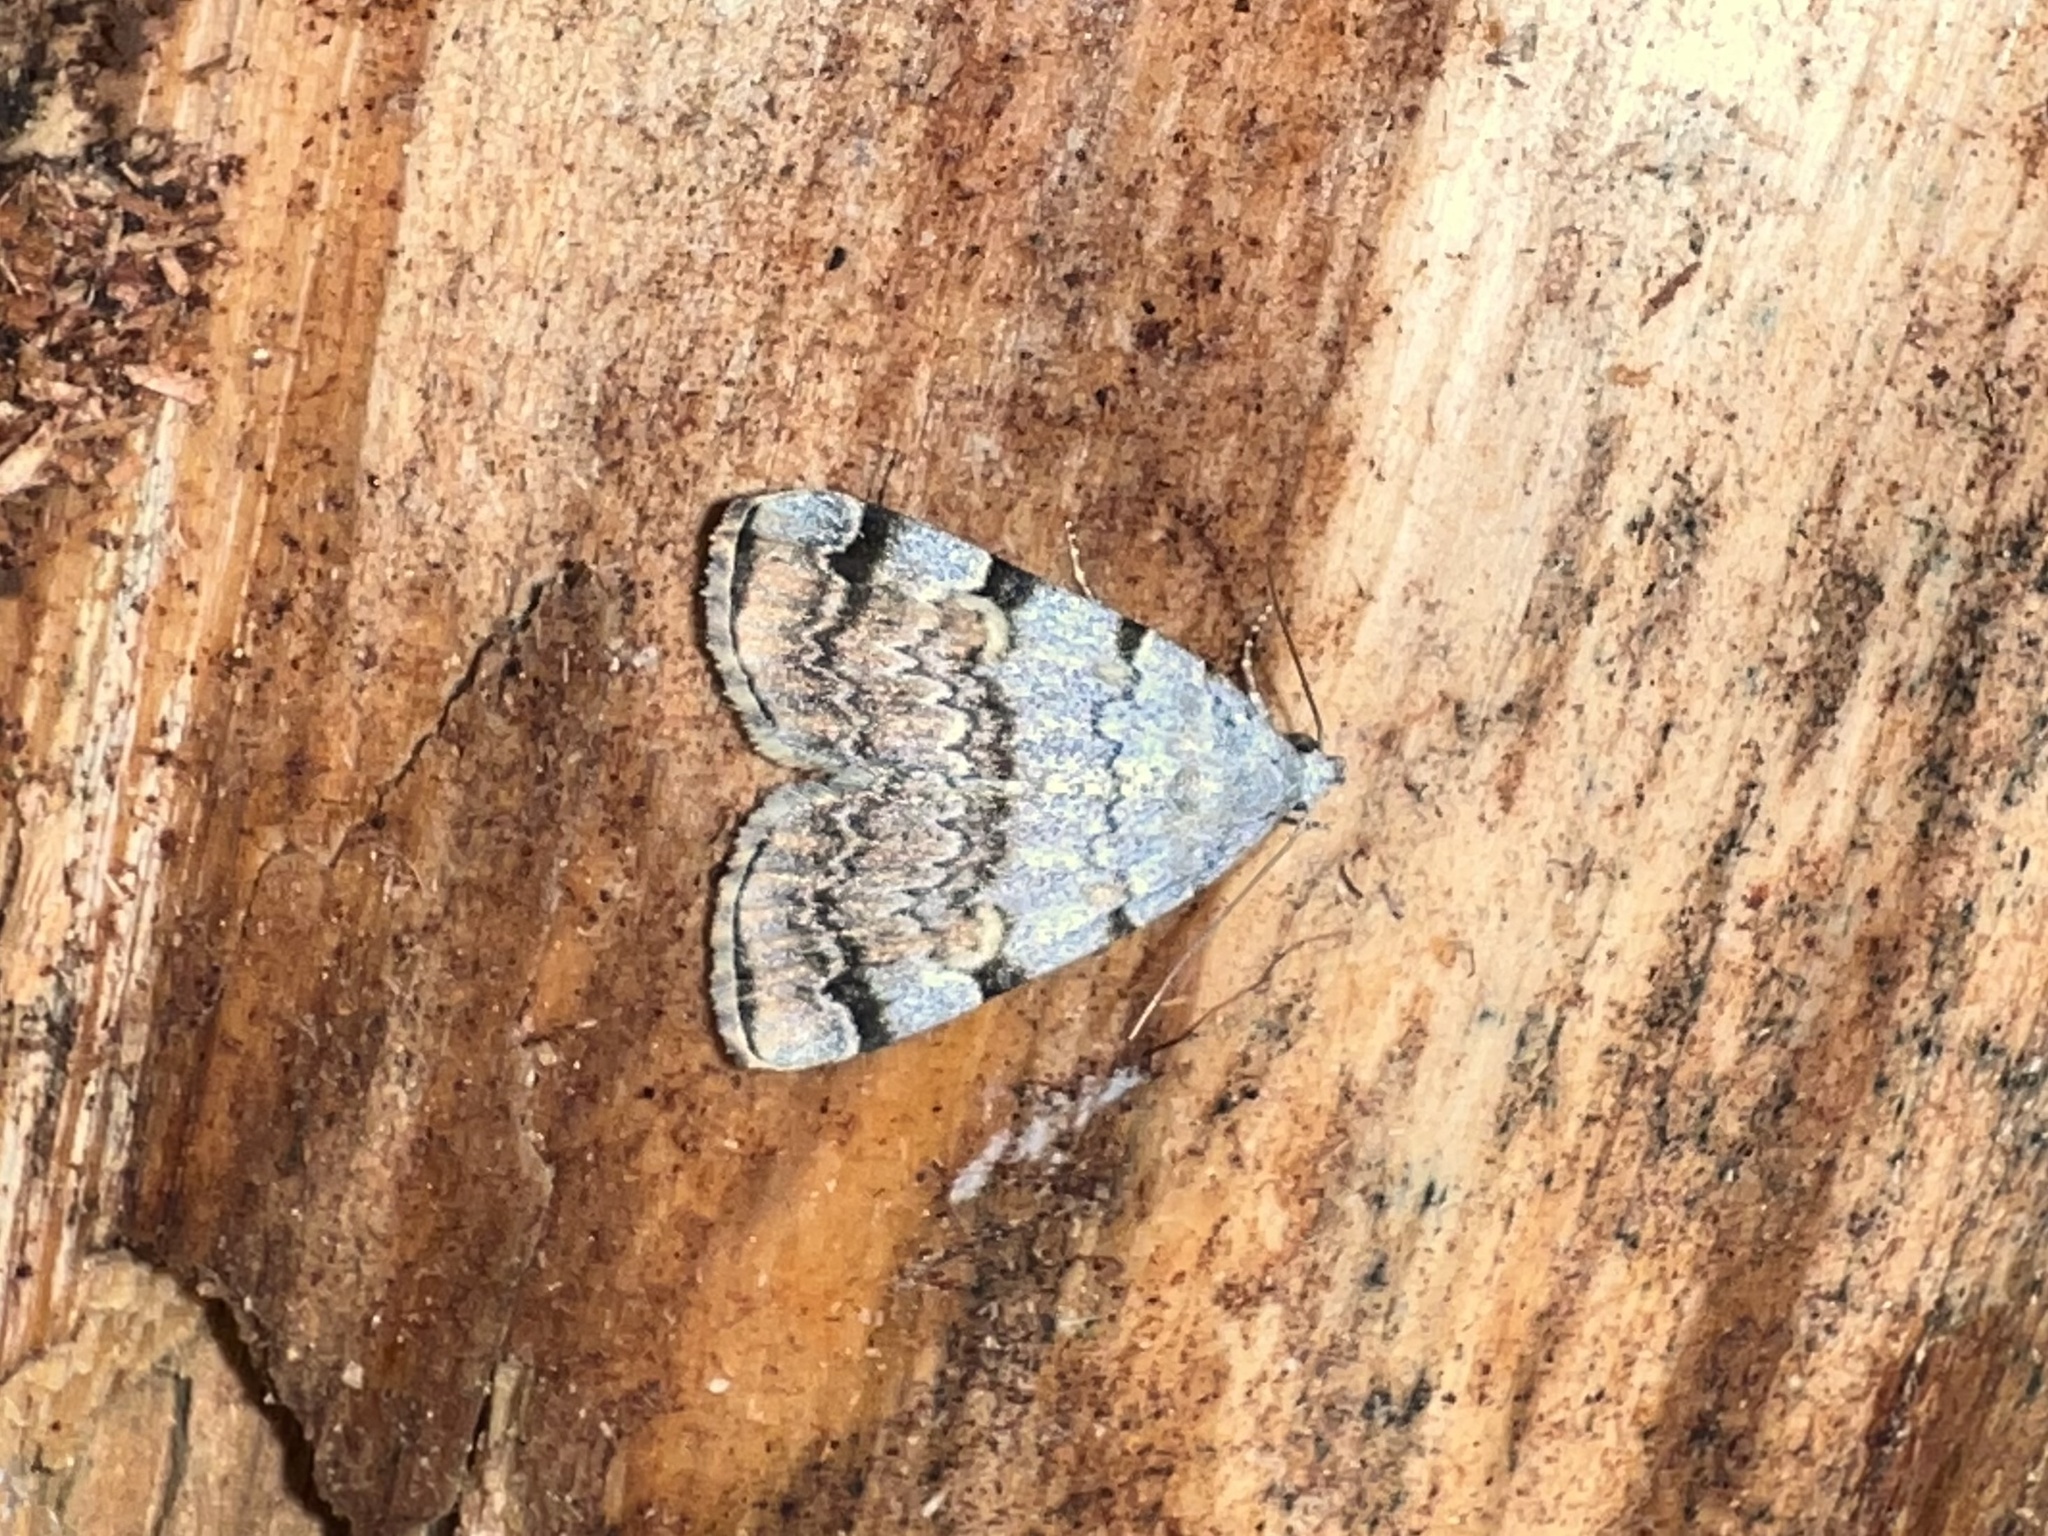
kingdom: Animalia
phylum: Arthropoda
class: Insecta
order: Lepidoptera
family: Erebidae
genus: Idia
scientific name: Idia americalis
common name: American idia moth
